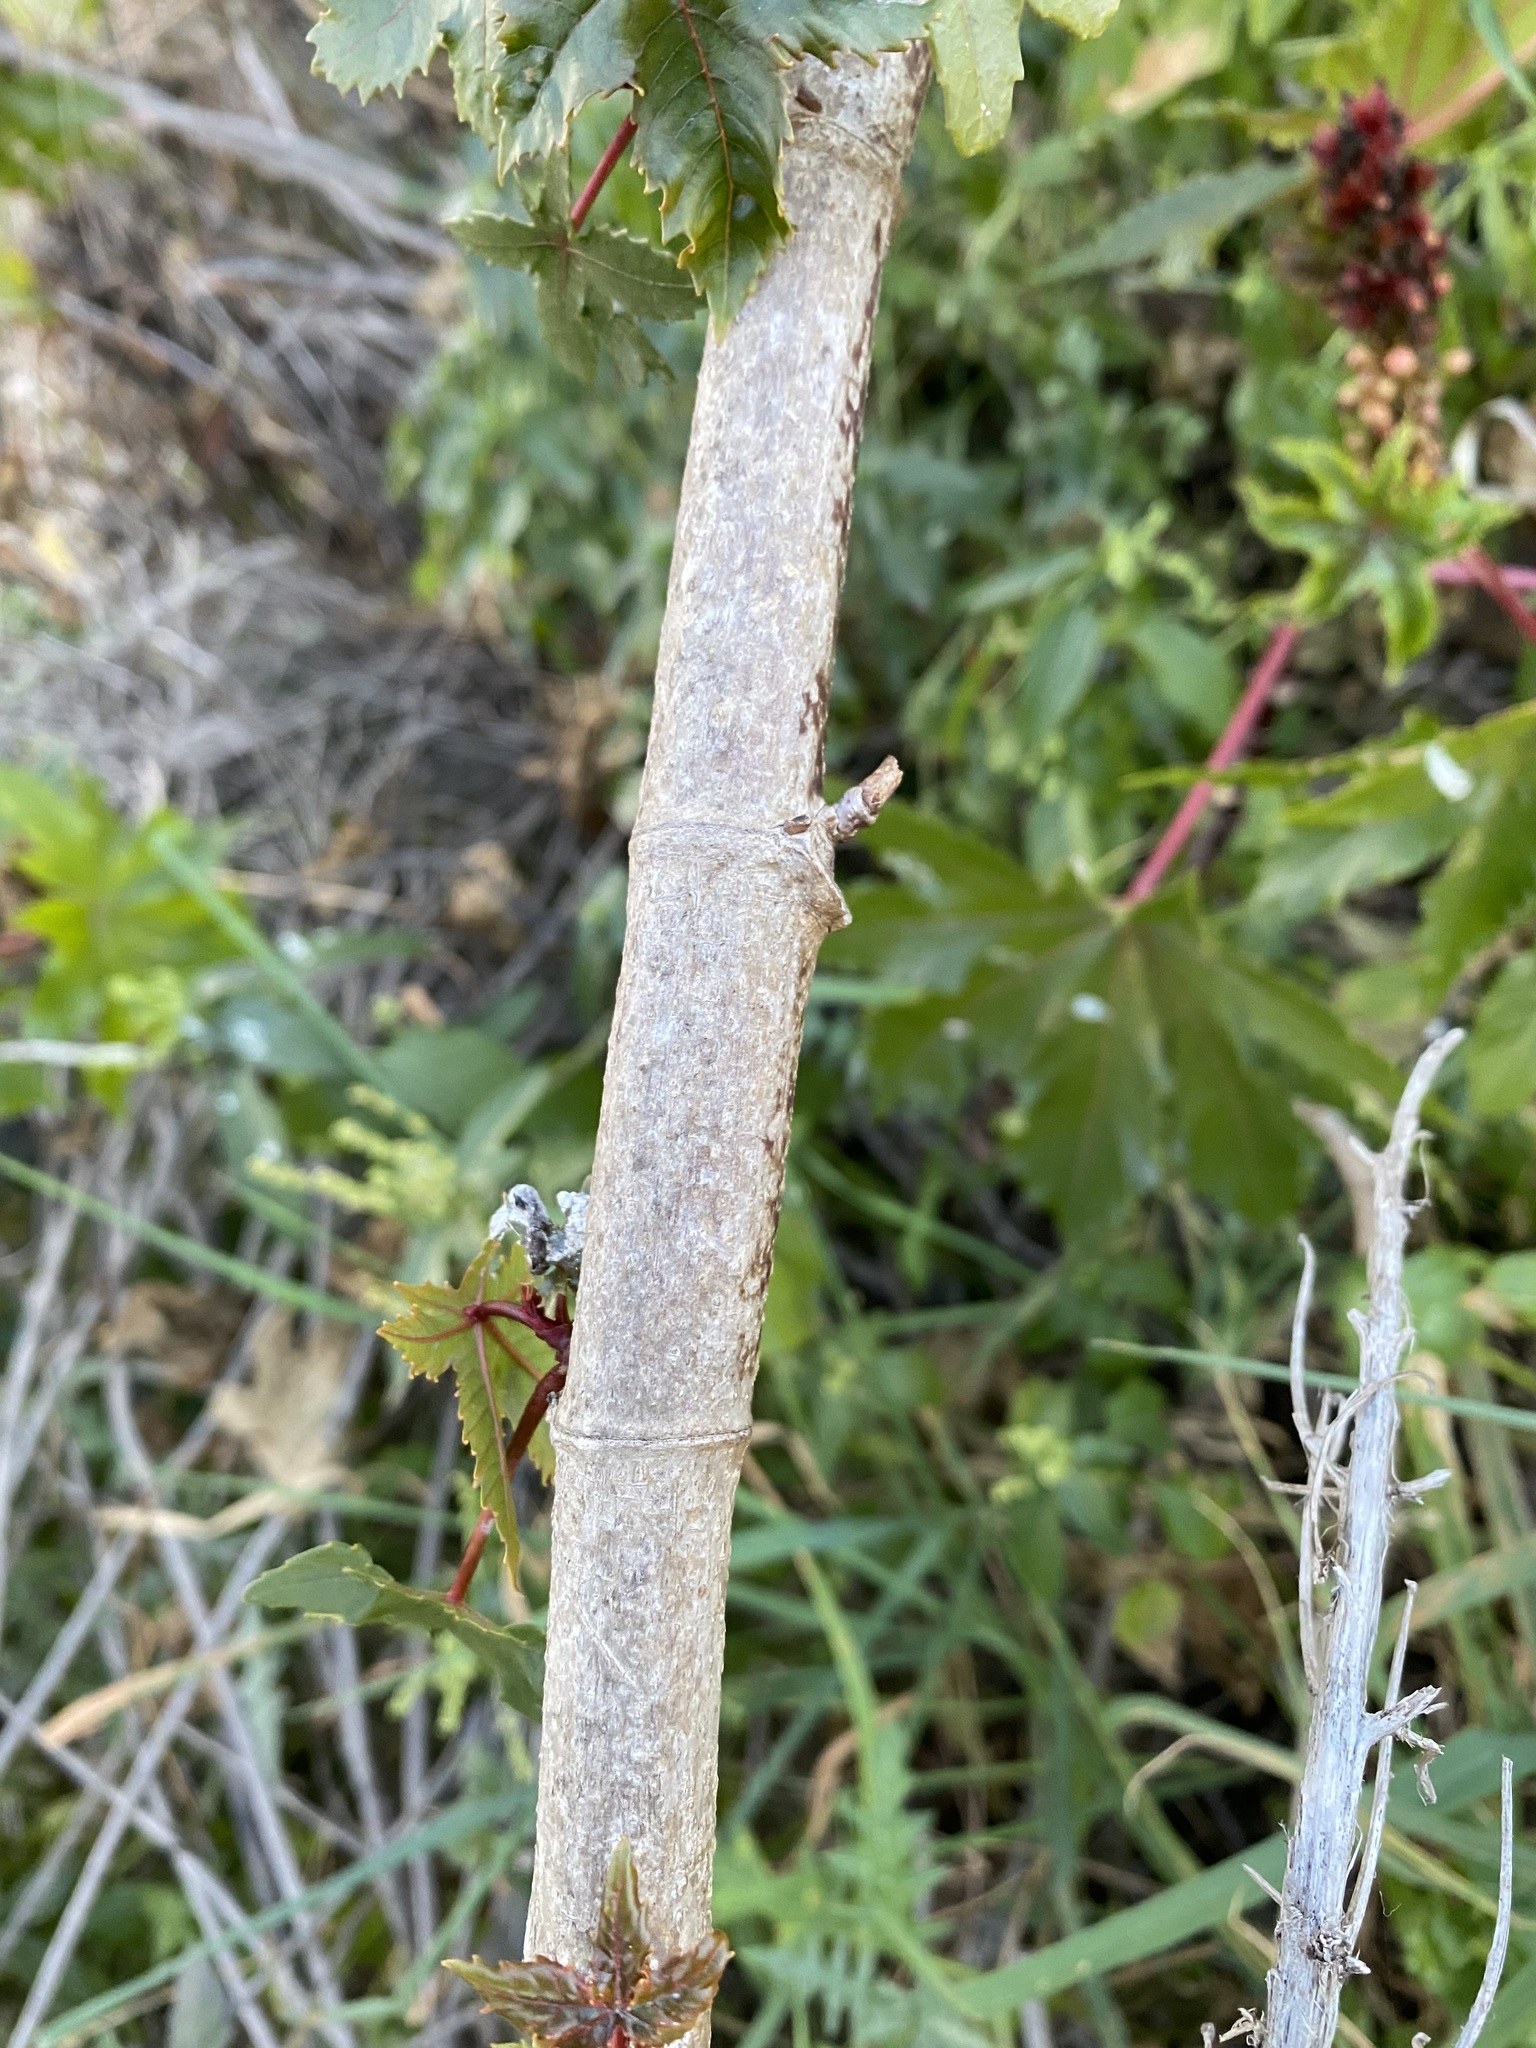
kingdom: Plantae
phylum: Tracheophyta
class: Magnoliopsida
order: Malpighiales
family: Euphorbiaceae
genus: Ricinus
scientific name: Ricinus communis
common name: Castor-oil-plant
